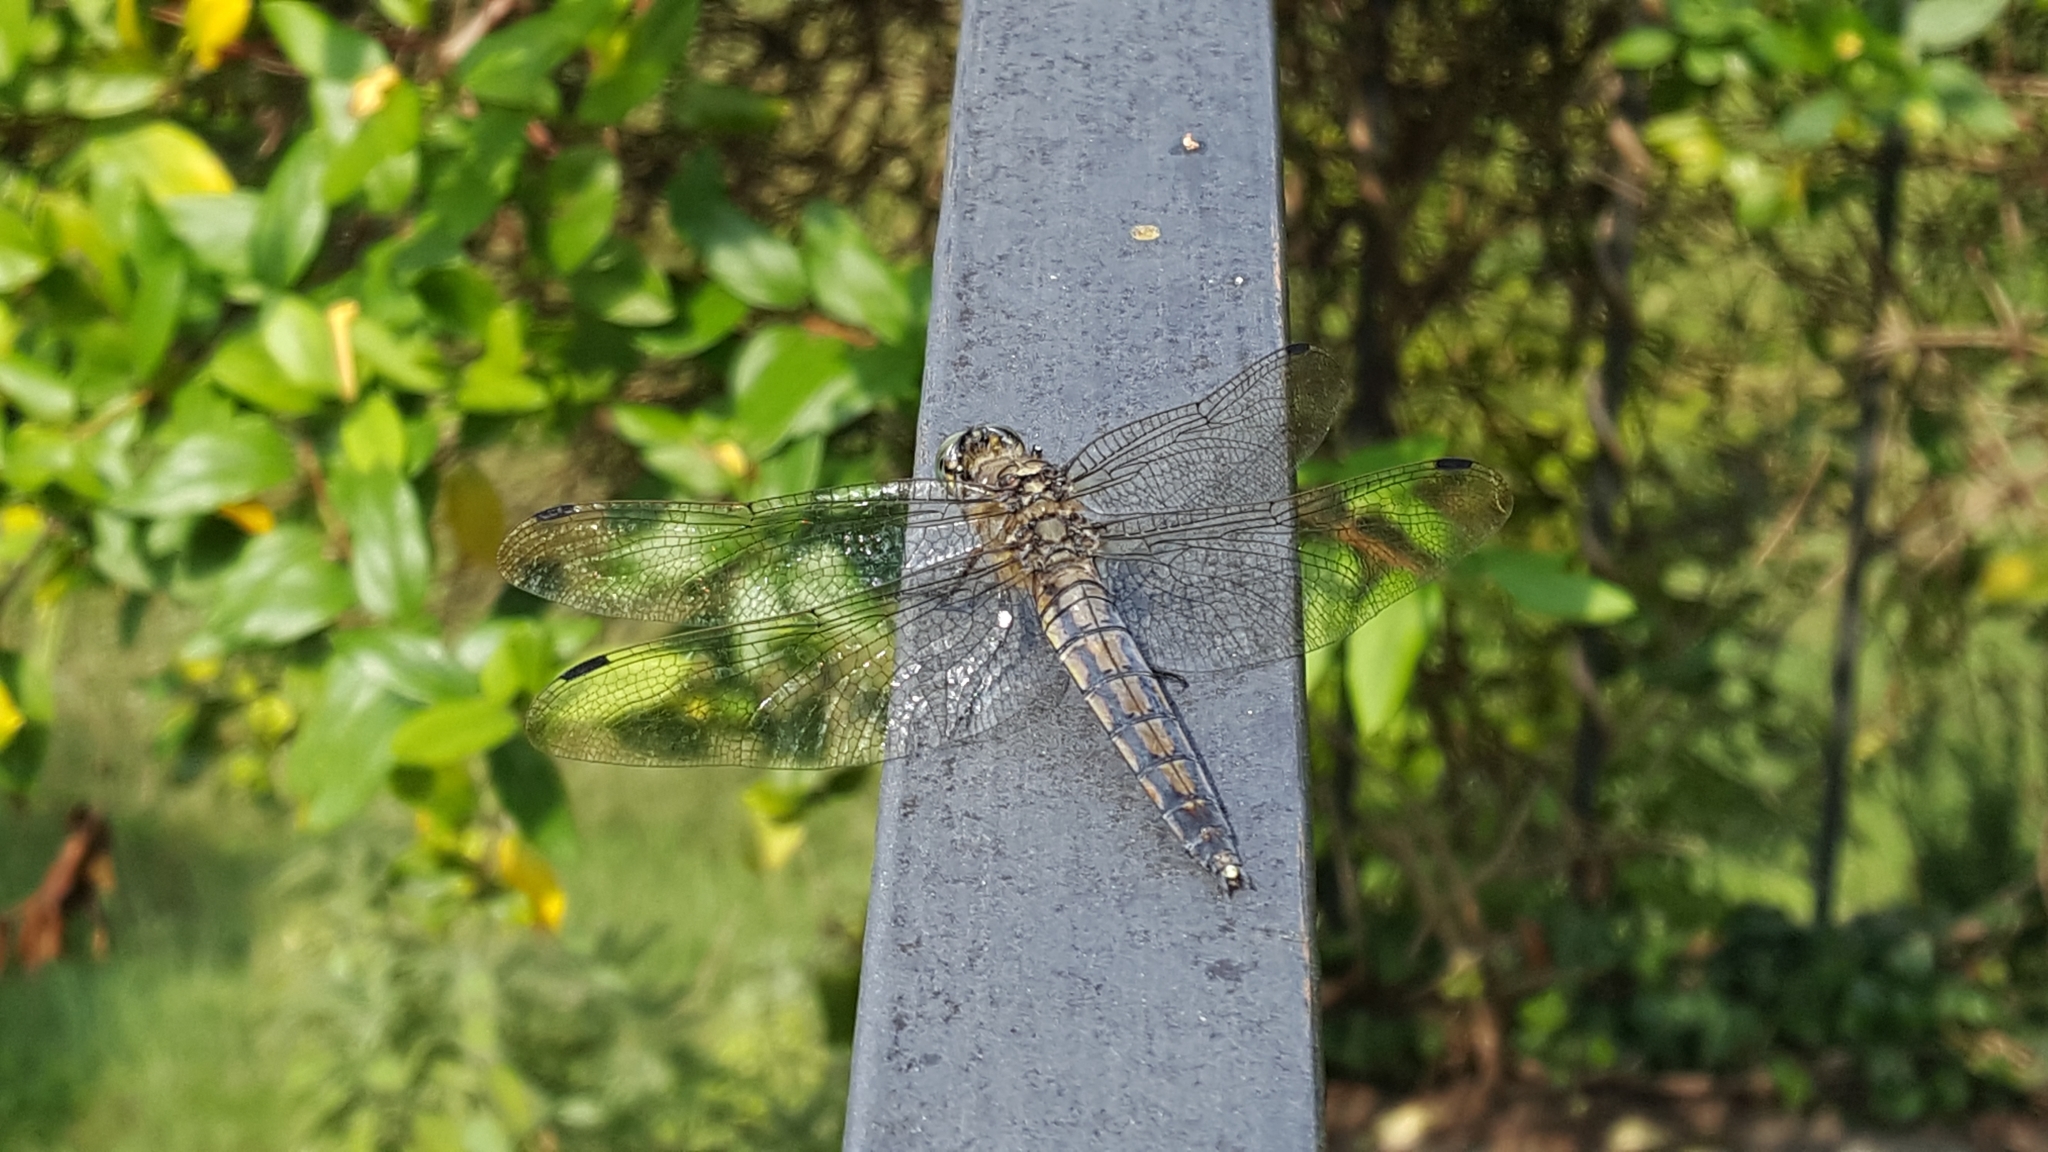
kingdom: Animalia
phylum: Arthropoda
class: Insecta
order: Odonata
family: Libellulidae
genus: Orthetrum
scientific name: Orthetrum cancellatum
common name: Black-tailed skimmer
